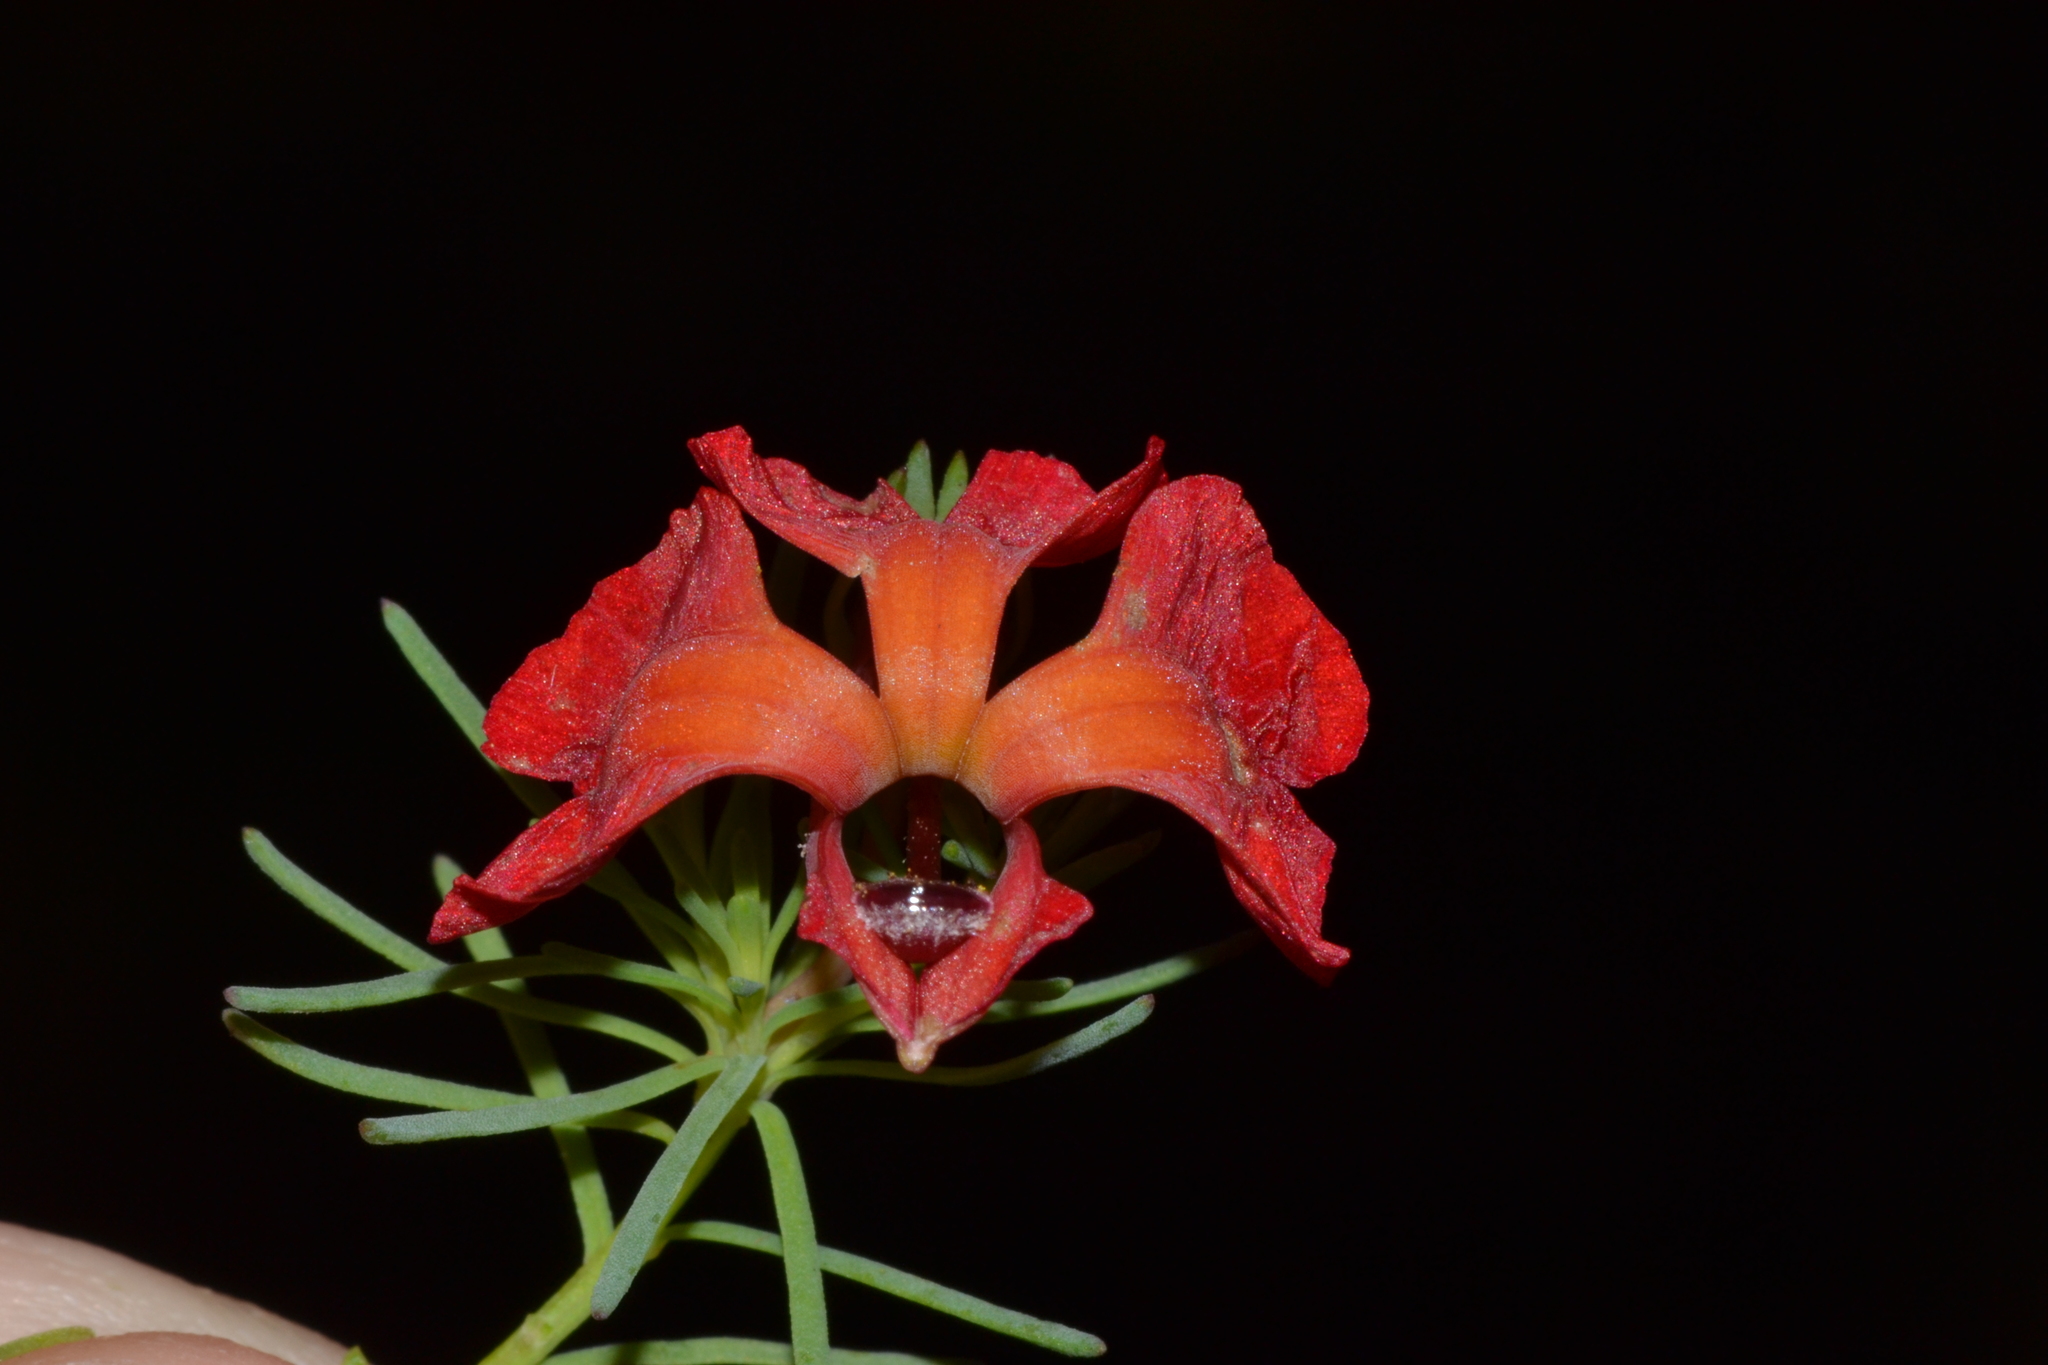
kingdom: Plantae
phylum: Tracheophyta
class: Magnoliopsida
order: Asterales
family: Goodeniaceae
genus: Lechenaultia
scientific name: Lechenaultia formosa
